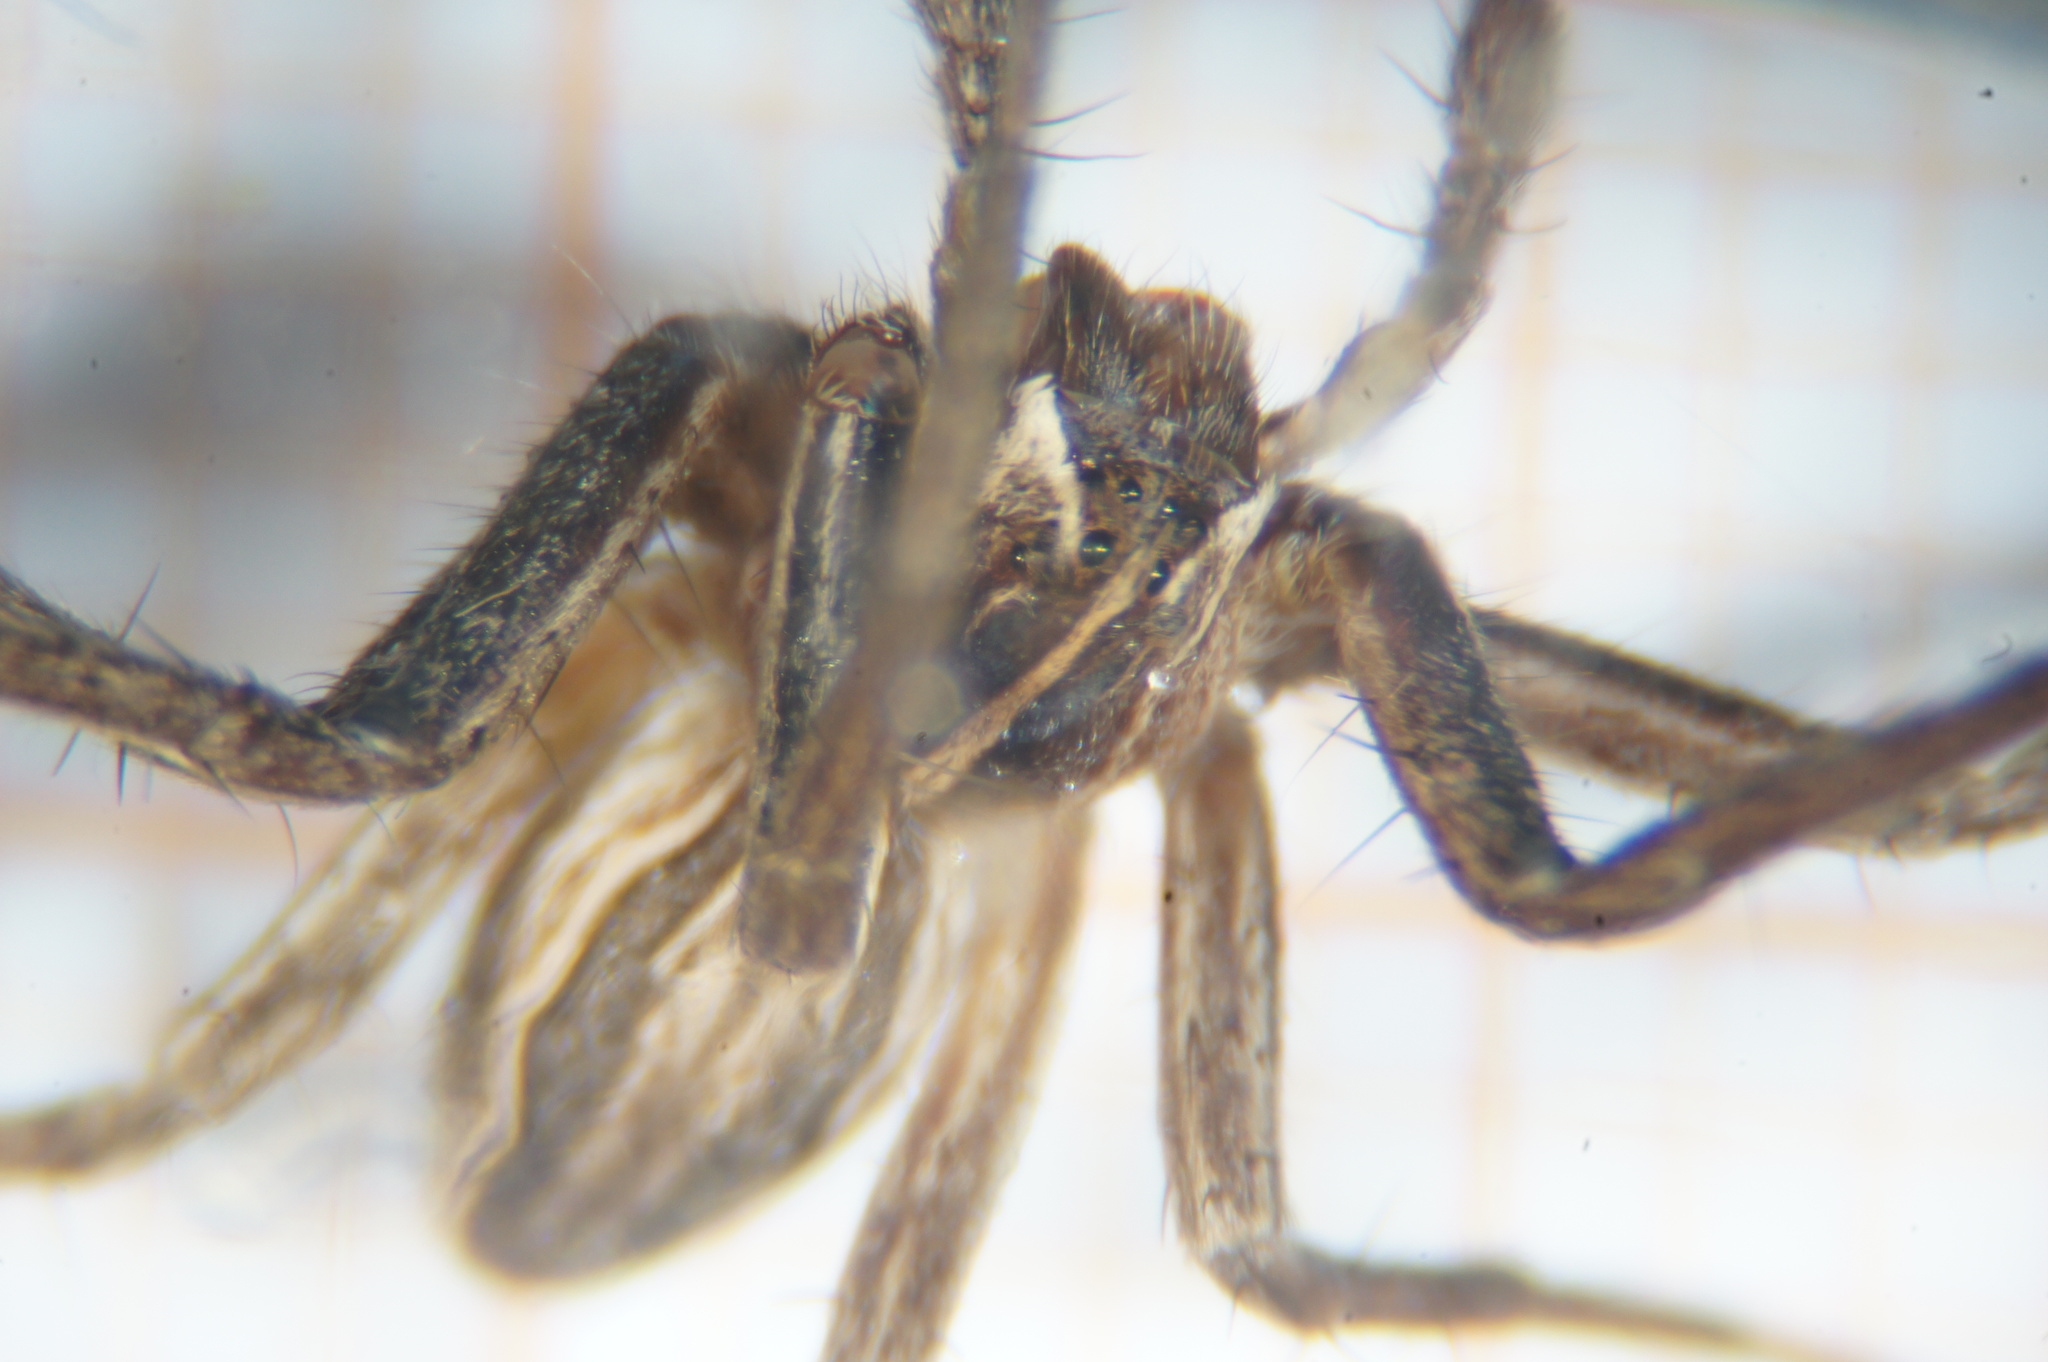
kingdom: Animalia
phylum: Arthropoda
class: Arachnida
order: Araneae
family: Pisauridae
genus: Pisaura
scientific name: Pisaura mirabilis
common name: Tent spider
